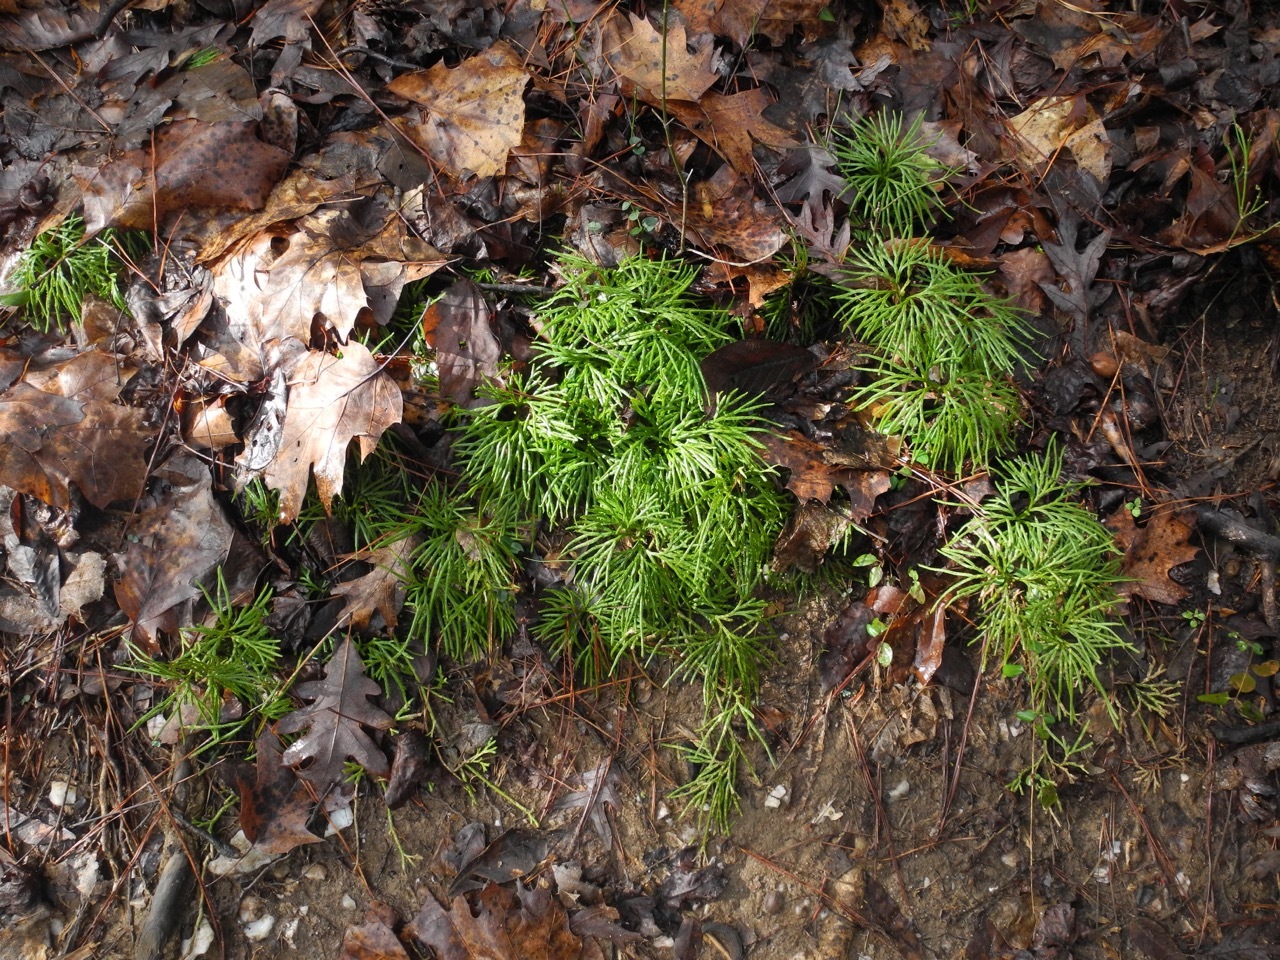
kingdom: Plantae
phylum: Tracheophyta
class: Lycopodiopsida
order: Lycopodiales
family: Lycopodiaceae
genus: Diphasiastrum
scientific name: Diphasiastrum digitatum
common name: Southern running-pine
